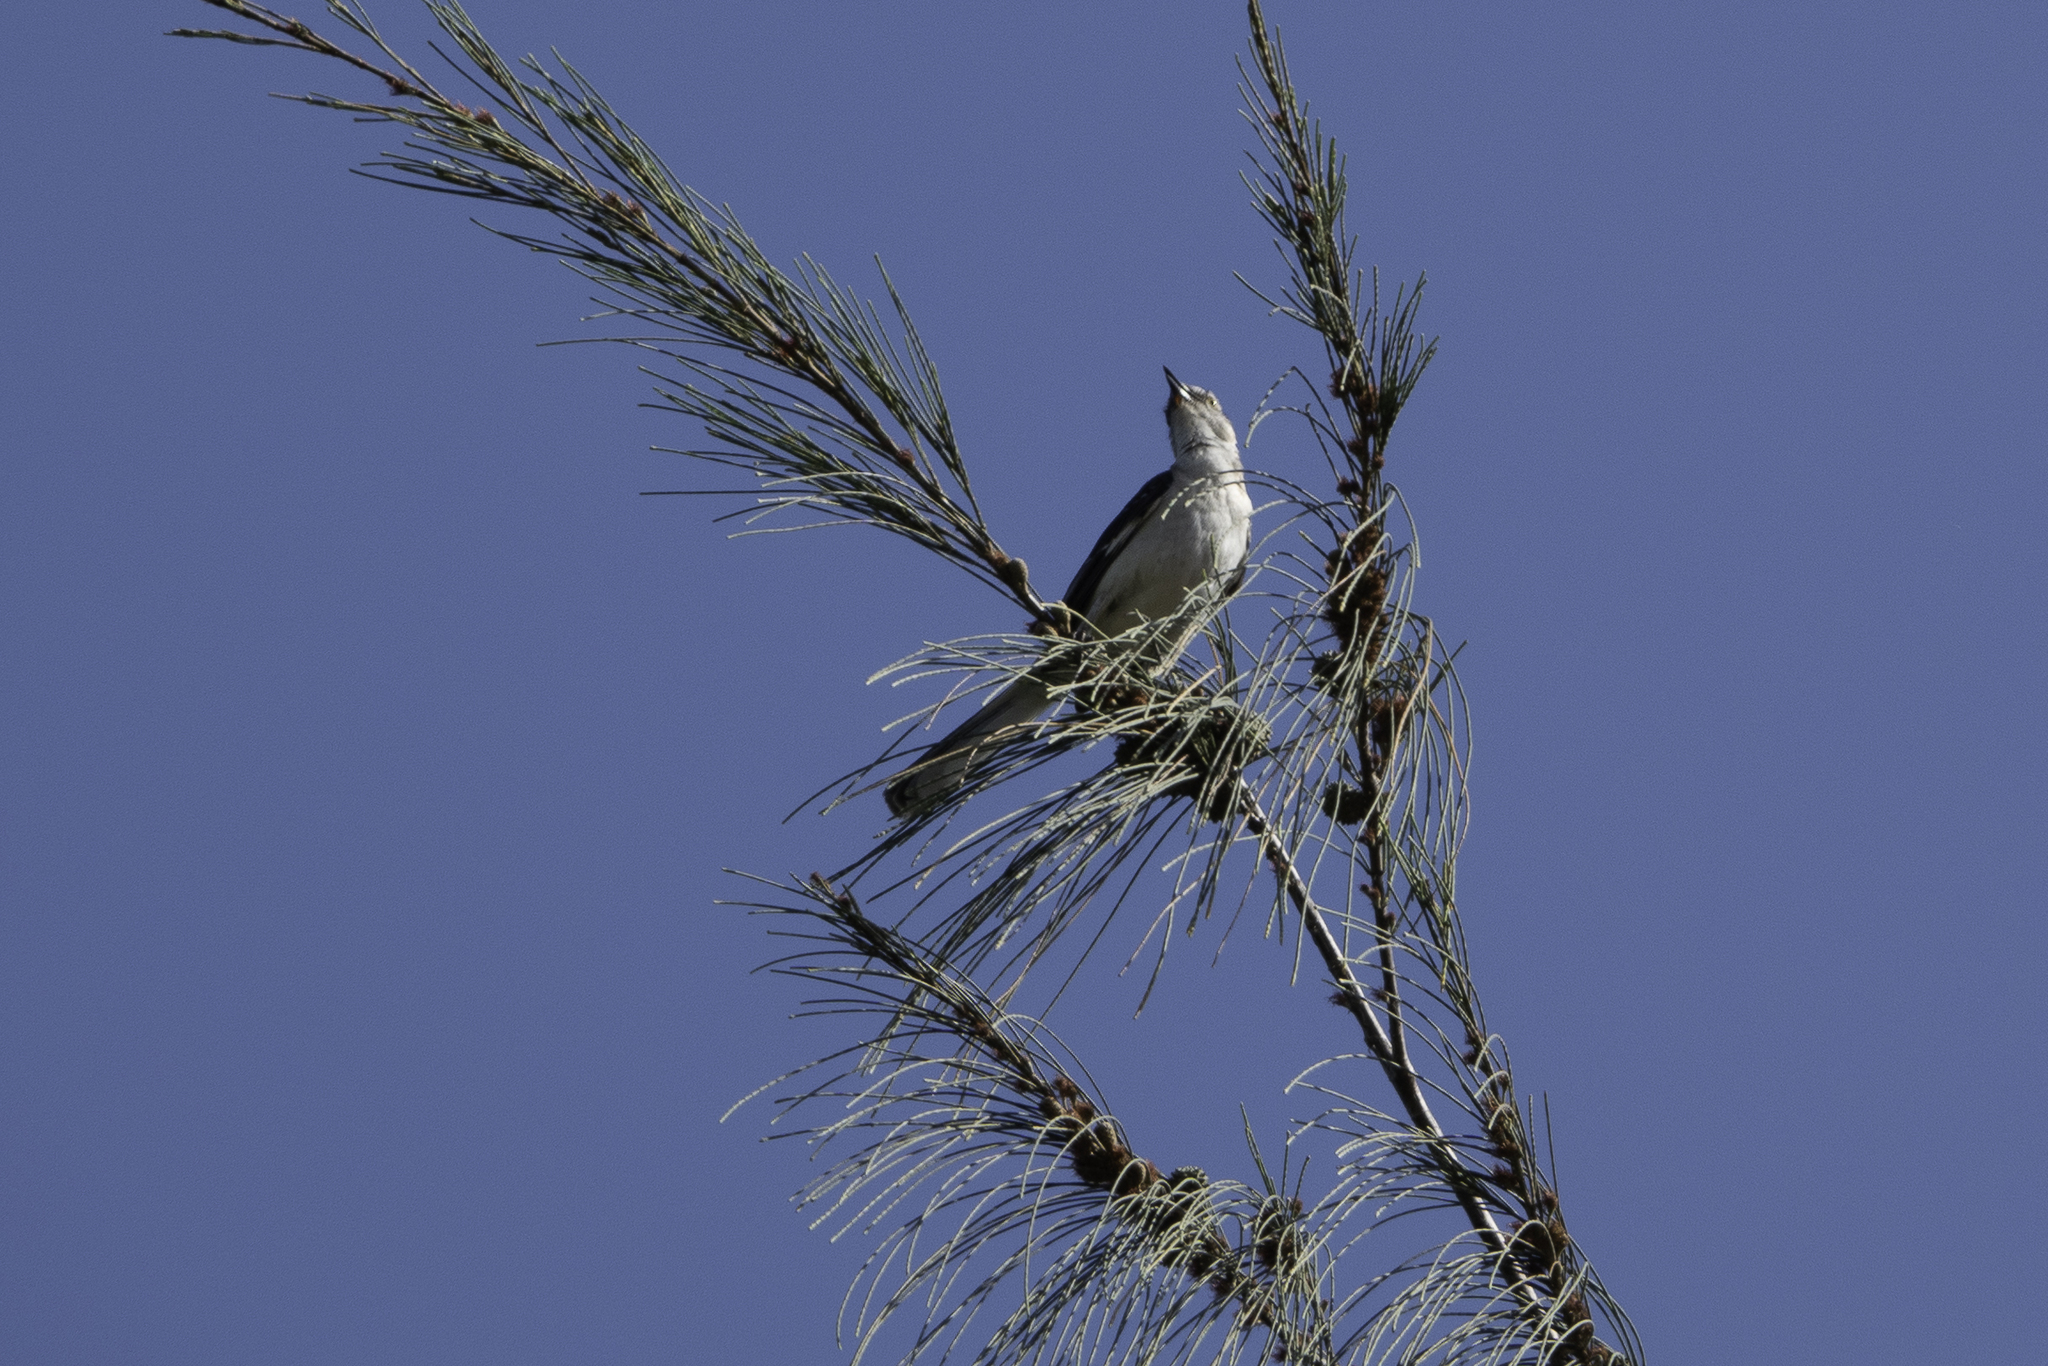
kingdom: Animalia
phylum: Chordata
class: Aves
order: Passeriformes
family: Mimidae
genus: Mimus
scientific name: Mimus polyglottos
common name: Northern mockingbird
